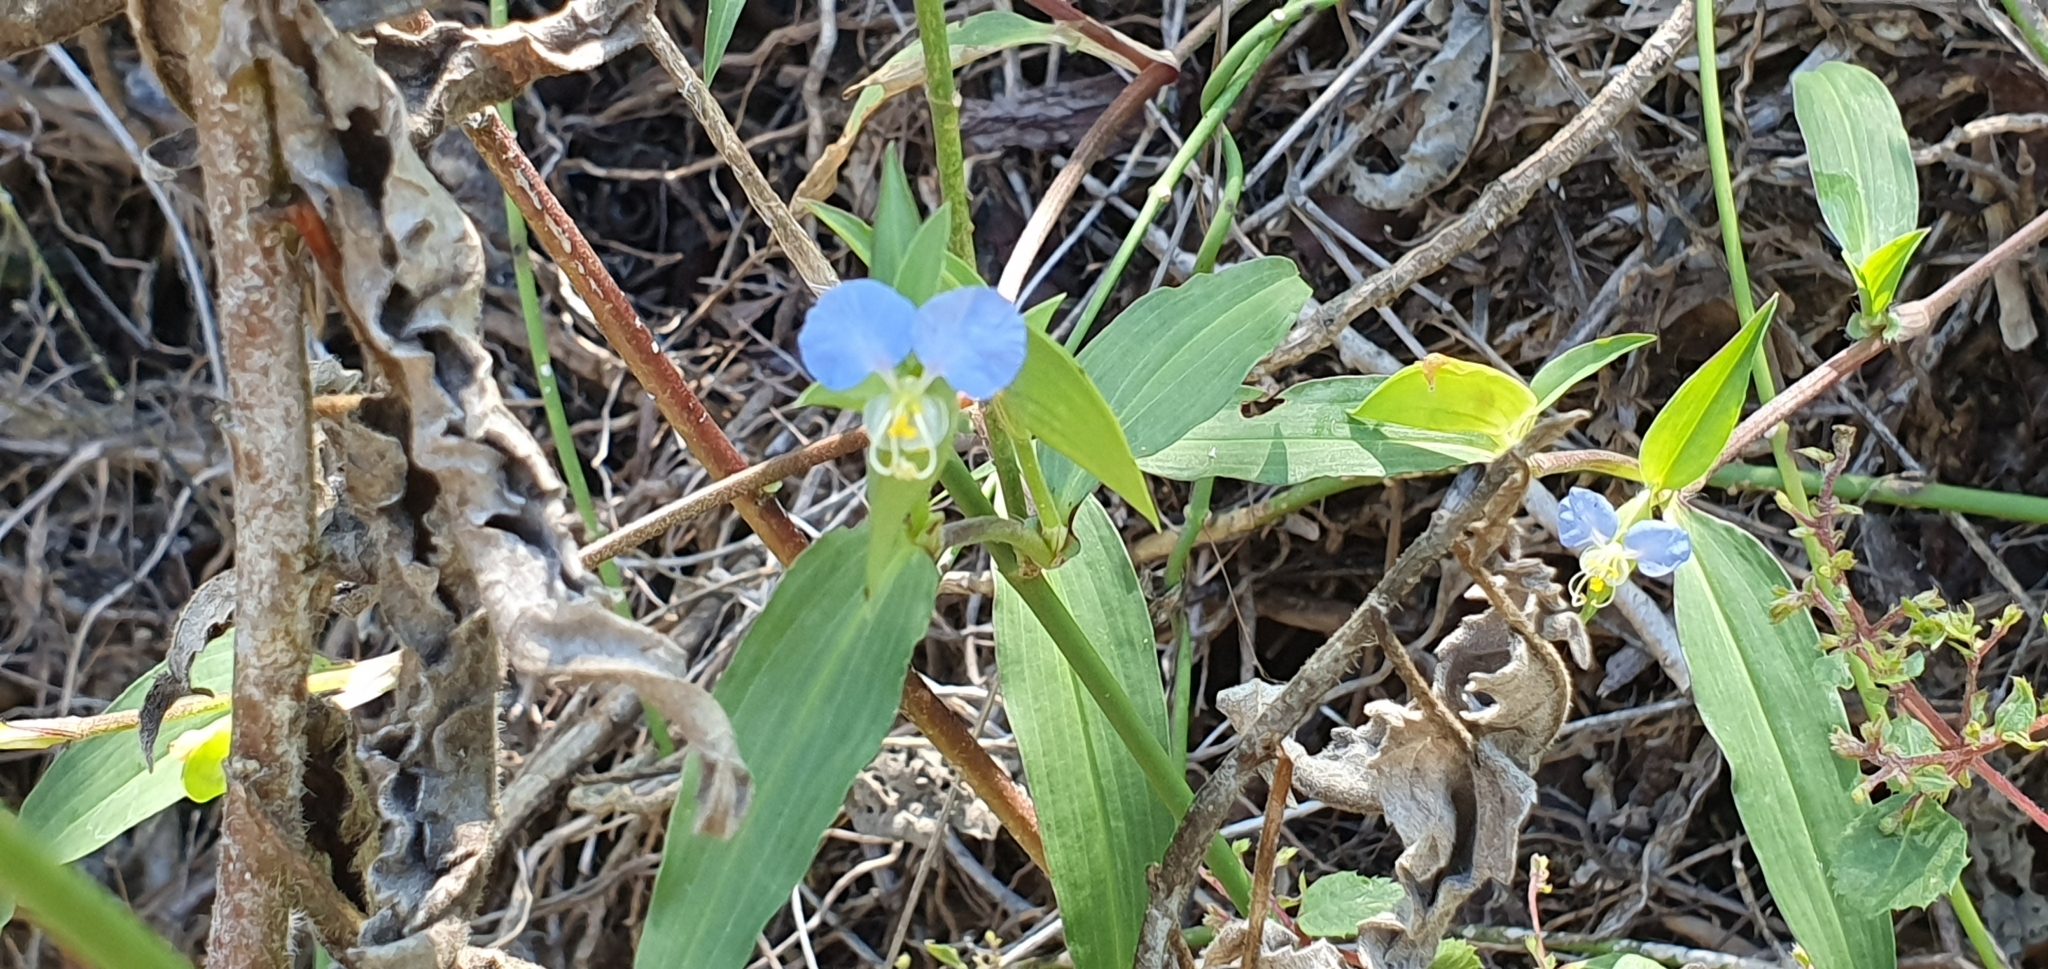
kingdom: Plantae
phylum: Tracheophyta
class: Liliopsida
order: Commelinales
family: Commelinaceae
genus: Commelina
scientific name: Commelina erecta
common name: Blousel blommetjie
